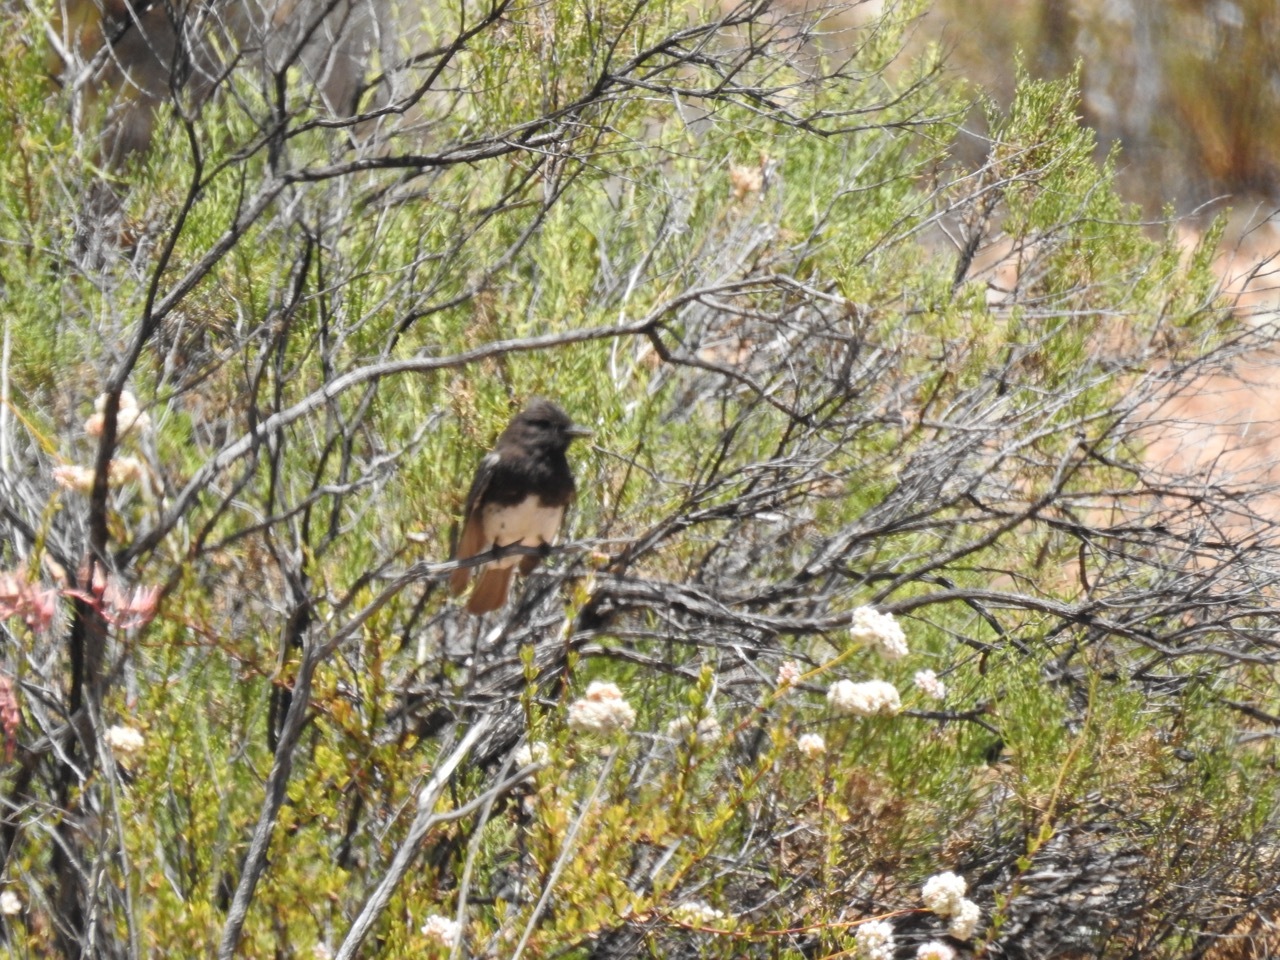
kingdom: Animalia
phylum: Chordata
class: Aves
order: Passeriformes
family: Tyrannidae
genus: Sayornis
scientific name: Sayornis nigricans
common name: Black phoebe
